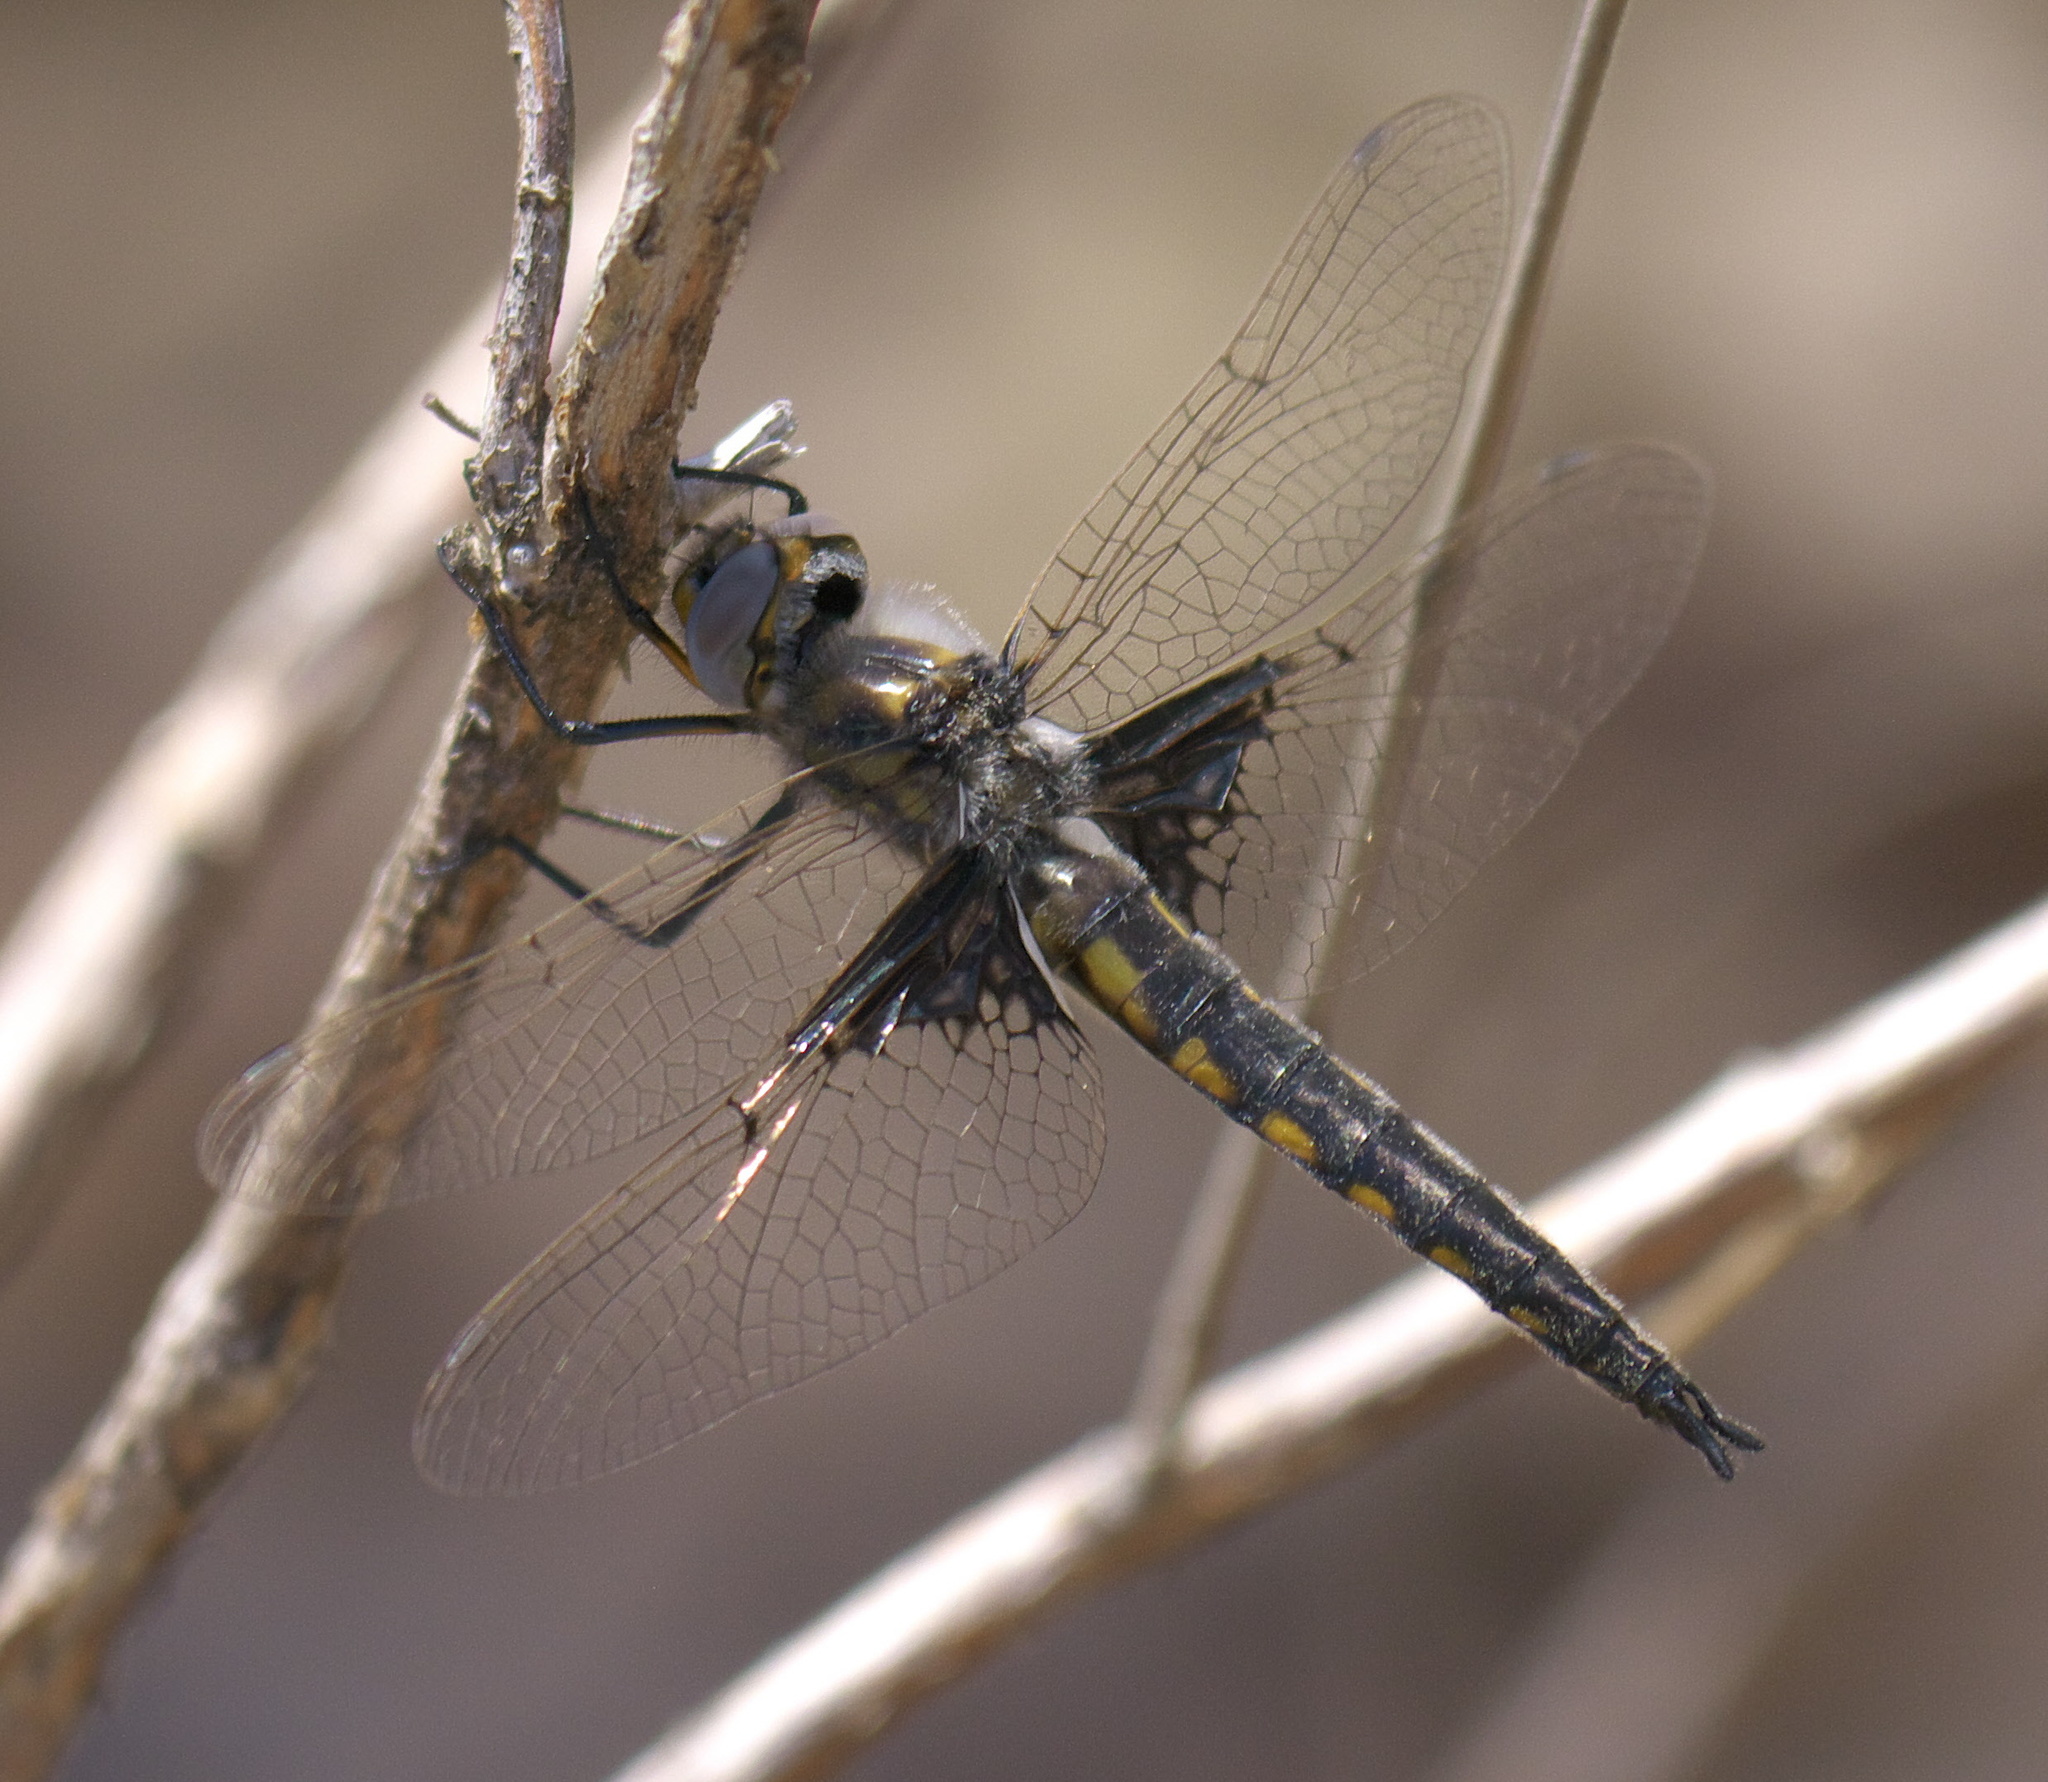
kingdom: Animalia
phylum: Arthropoda
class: Insecta
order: Odonata
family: Corduliidae
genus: Epitheca
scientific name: Epitheca semiaquea
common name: Mantled baskettail
